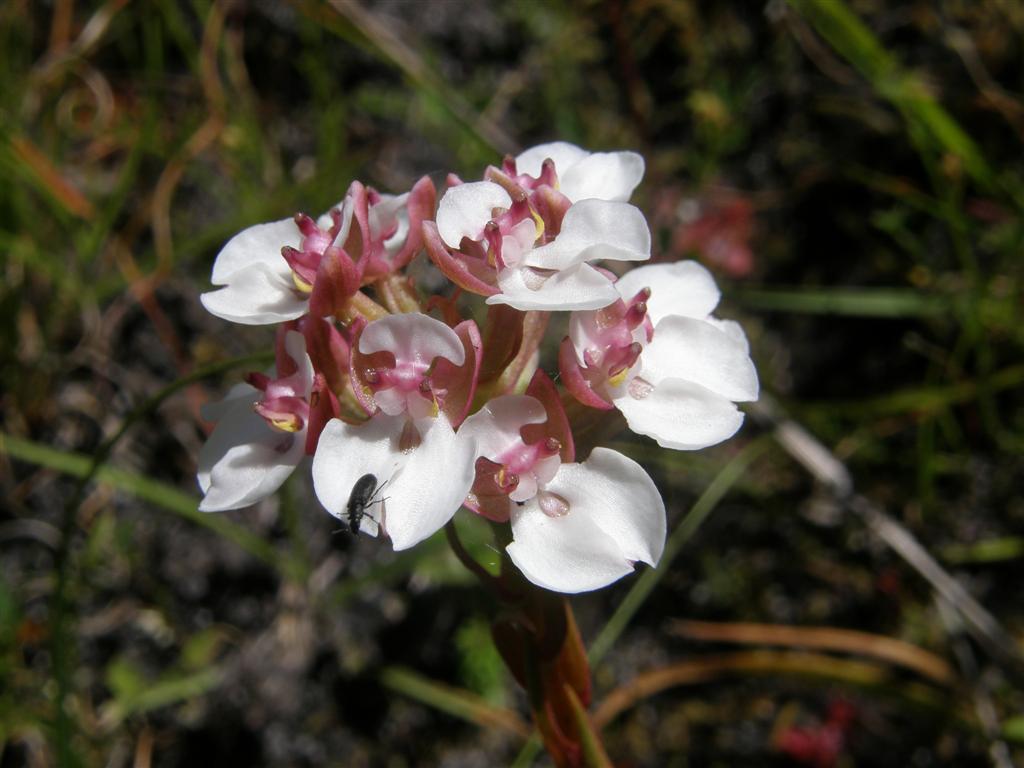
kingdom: Plantae
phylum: Tracheophyta
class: Liliopsida
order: Asparagales
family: Orchidaceae
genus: Ceratandra
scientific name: Ceratandra globosa
